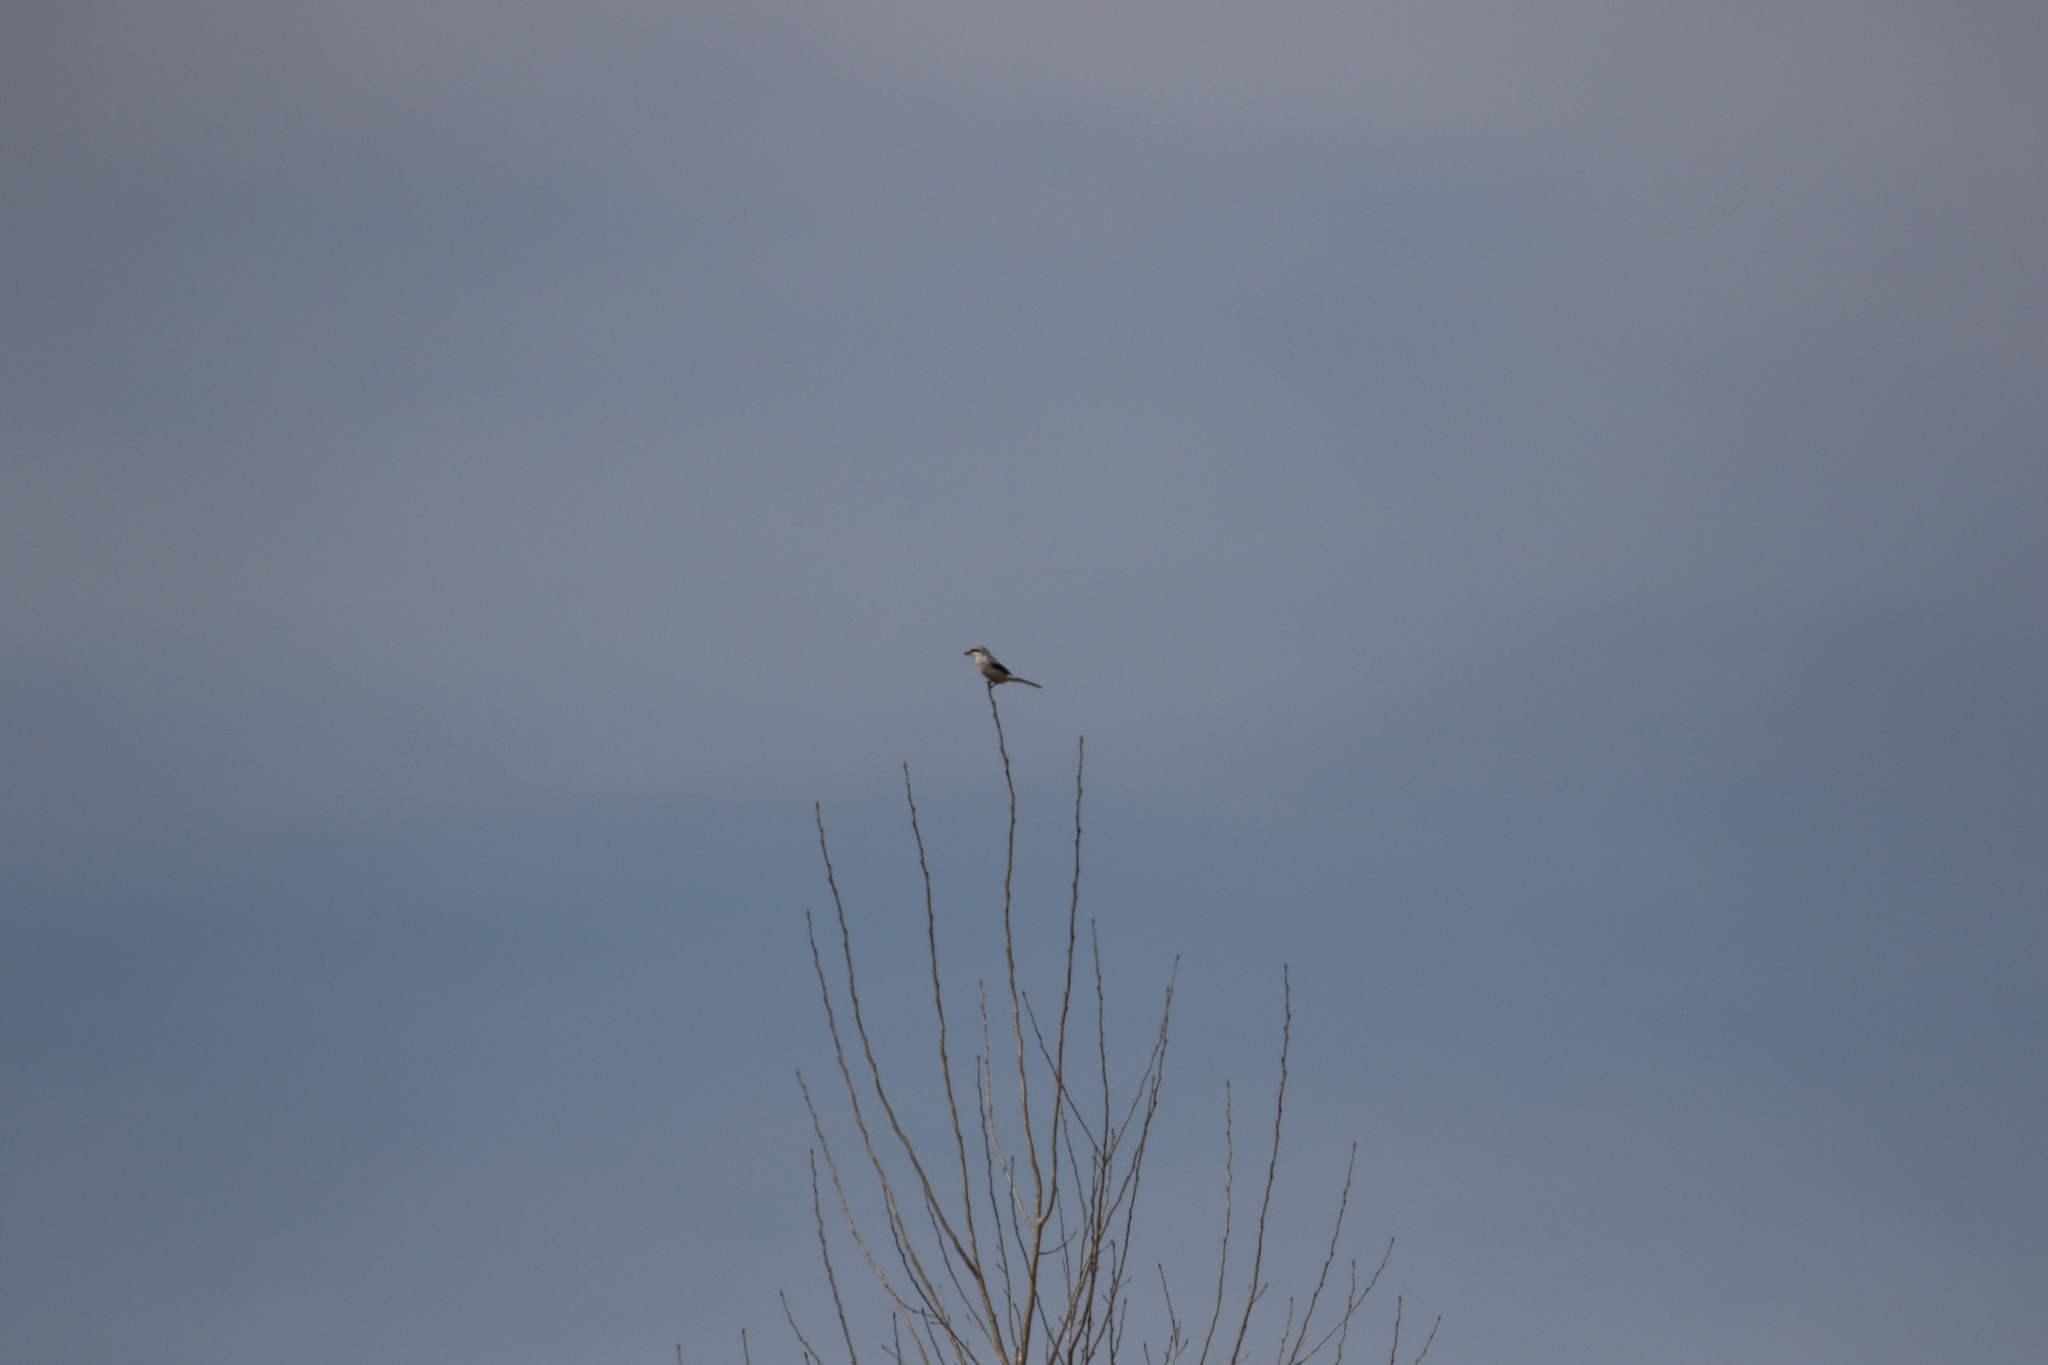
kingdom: Animalia
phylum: Chordata
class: Aves
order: Passeriformes
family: Laniidae
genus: Lanius
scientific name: Lanius borealis
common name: Northern shrike
